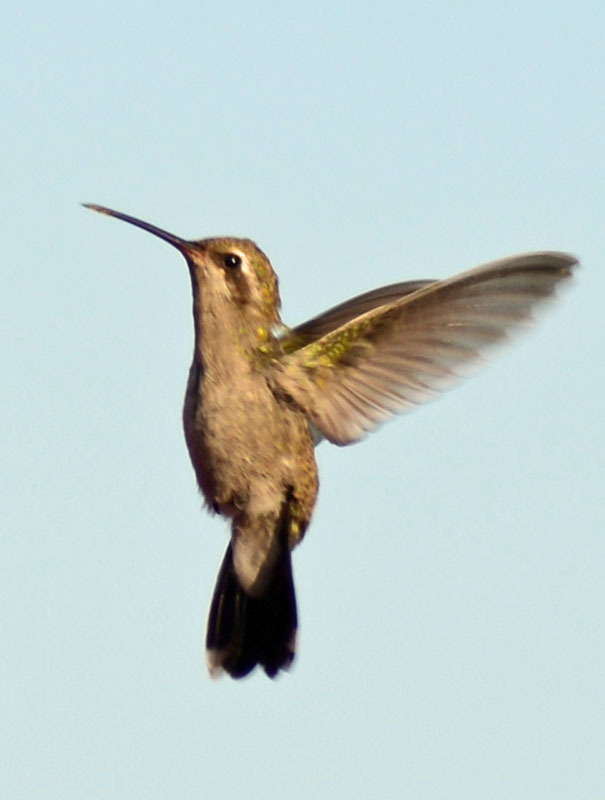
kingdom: Animalia
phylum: Chordata
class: Aves
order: Apodiformes
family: Trochilidae
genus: Cynanthus
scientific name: Cynanthus latirostris
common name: Broad-billed hummingbird
